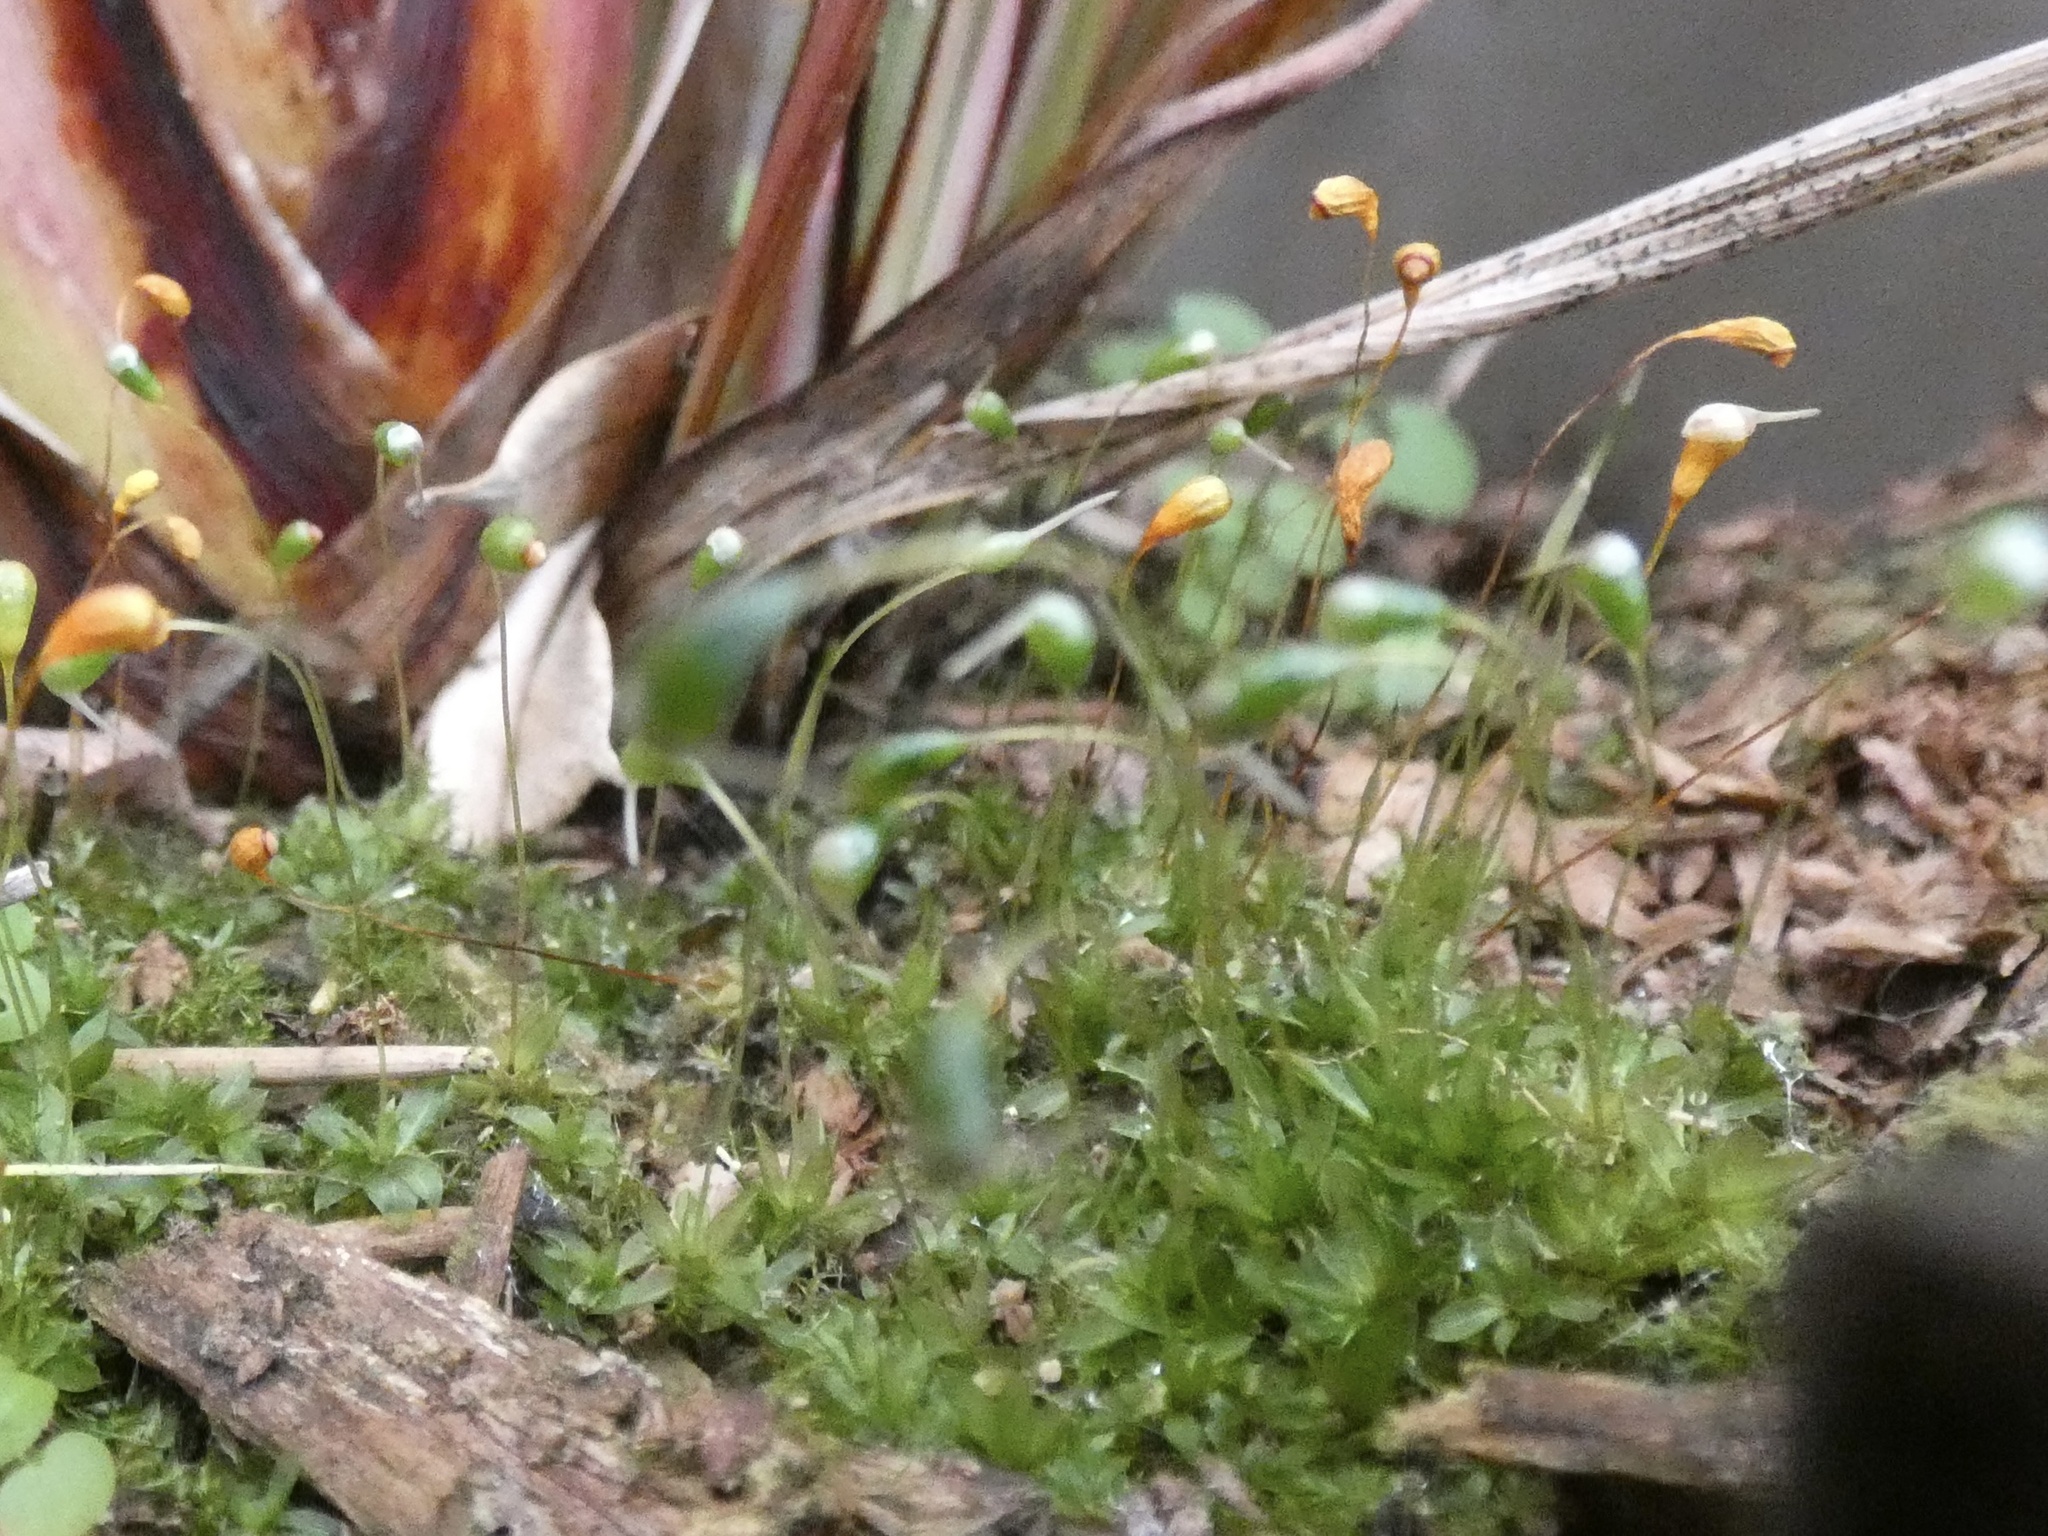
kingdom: Plantae
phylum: Bryophyta
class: Bryopsida
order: Funariales
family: Funariaceae
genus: Funaria
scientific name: Funaria hygrometrica
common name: Common cord moss
